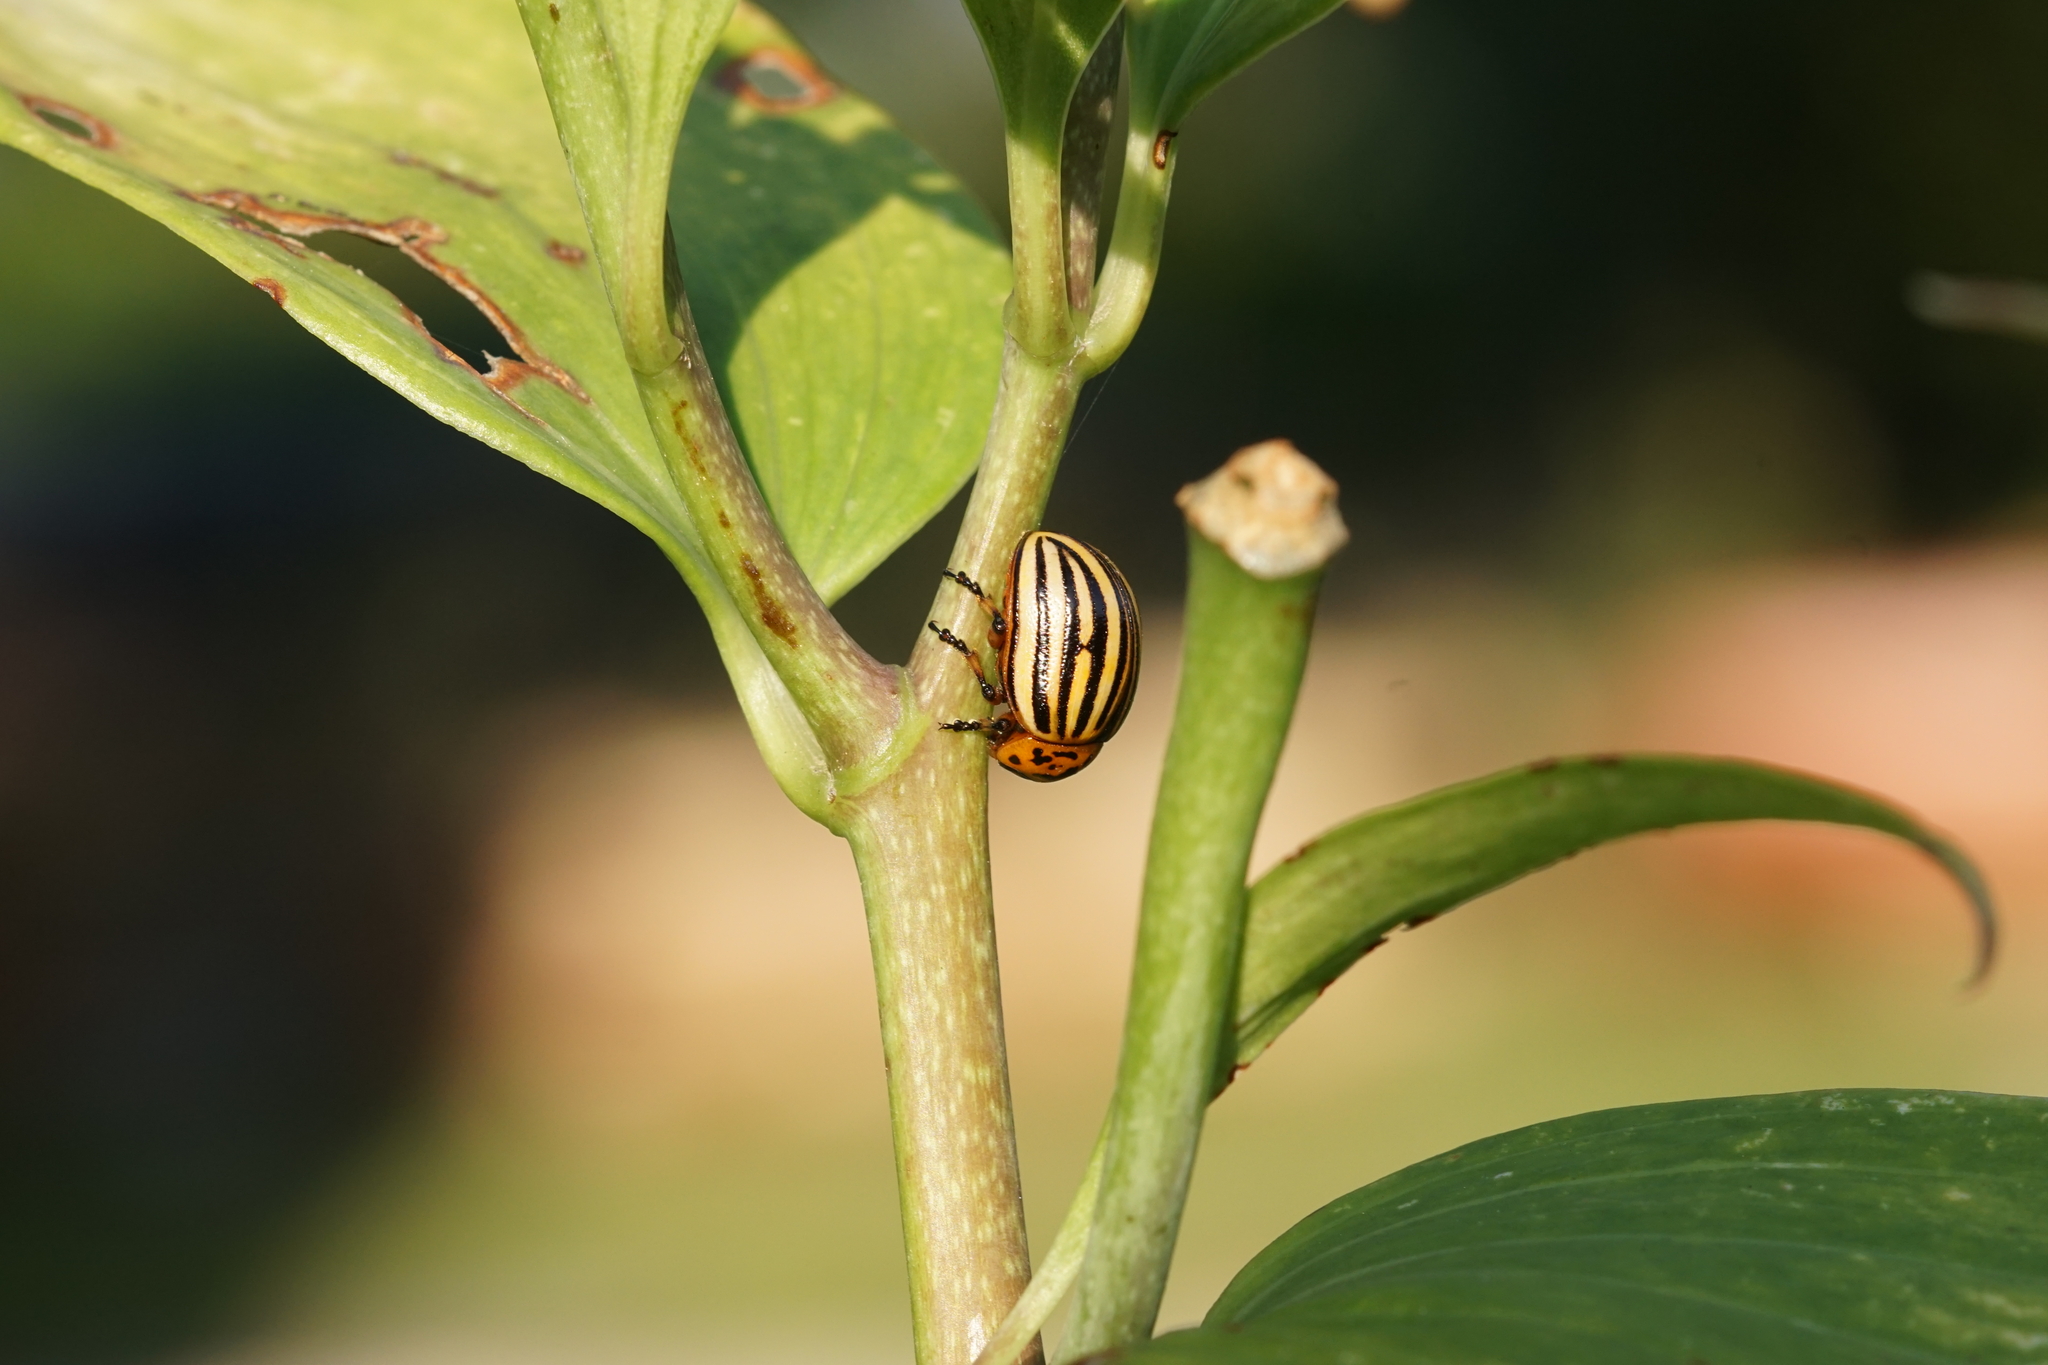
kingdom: Animalia
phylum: Arthropoda
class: Insecta
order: Coleoptera
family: Chrysomelidae
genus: Leptinotarsa
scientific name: Leptinotarsa decemlineata
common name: Colorado potato beetle
